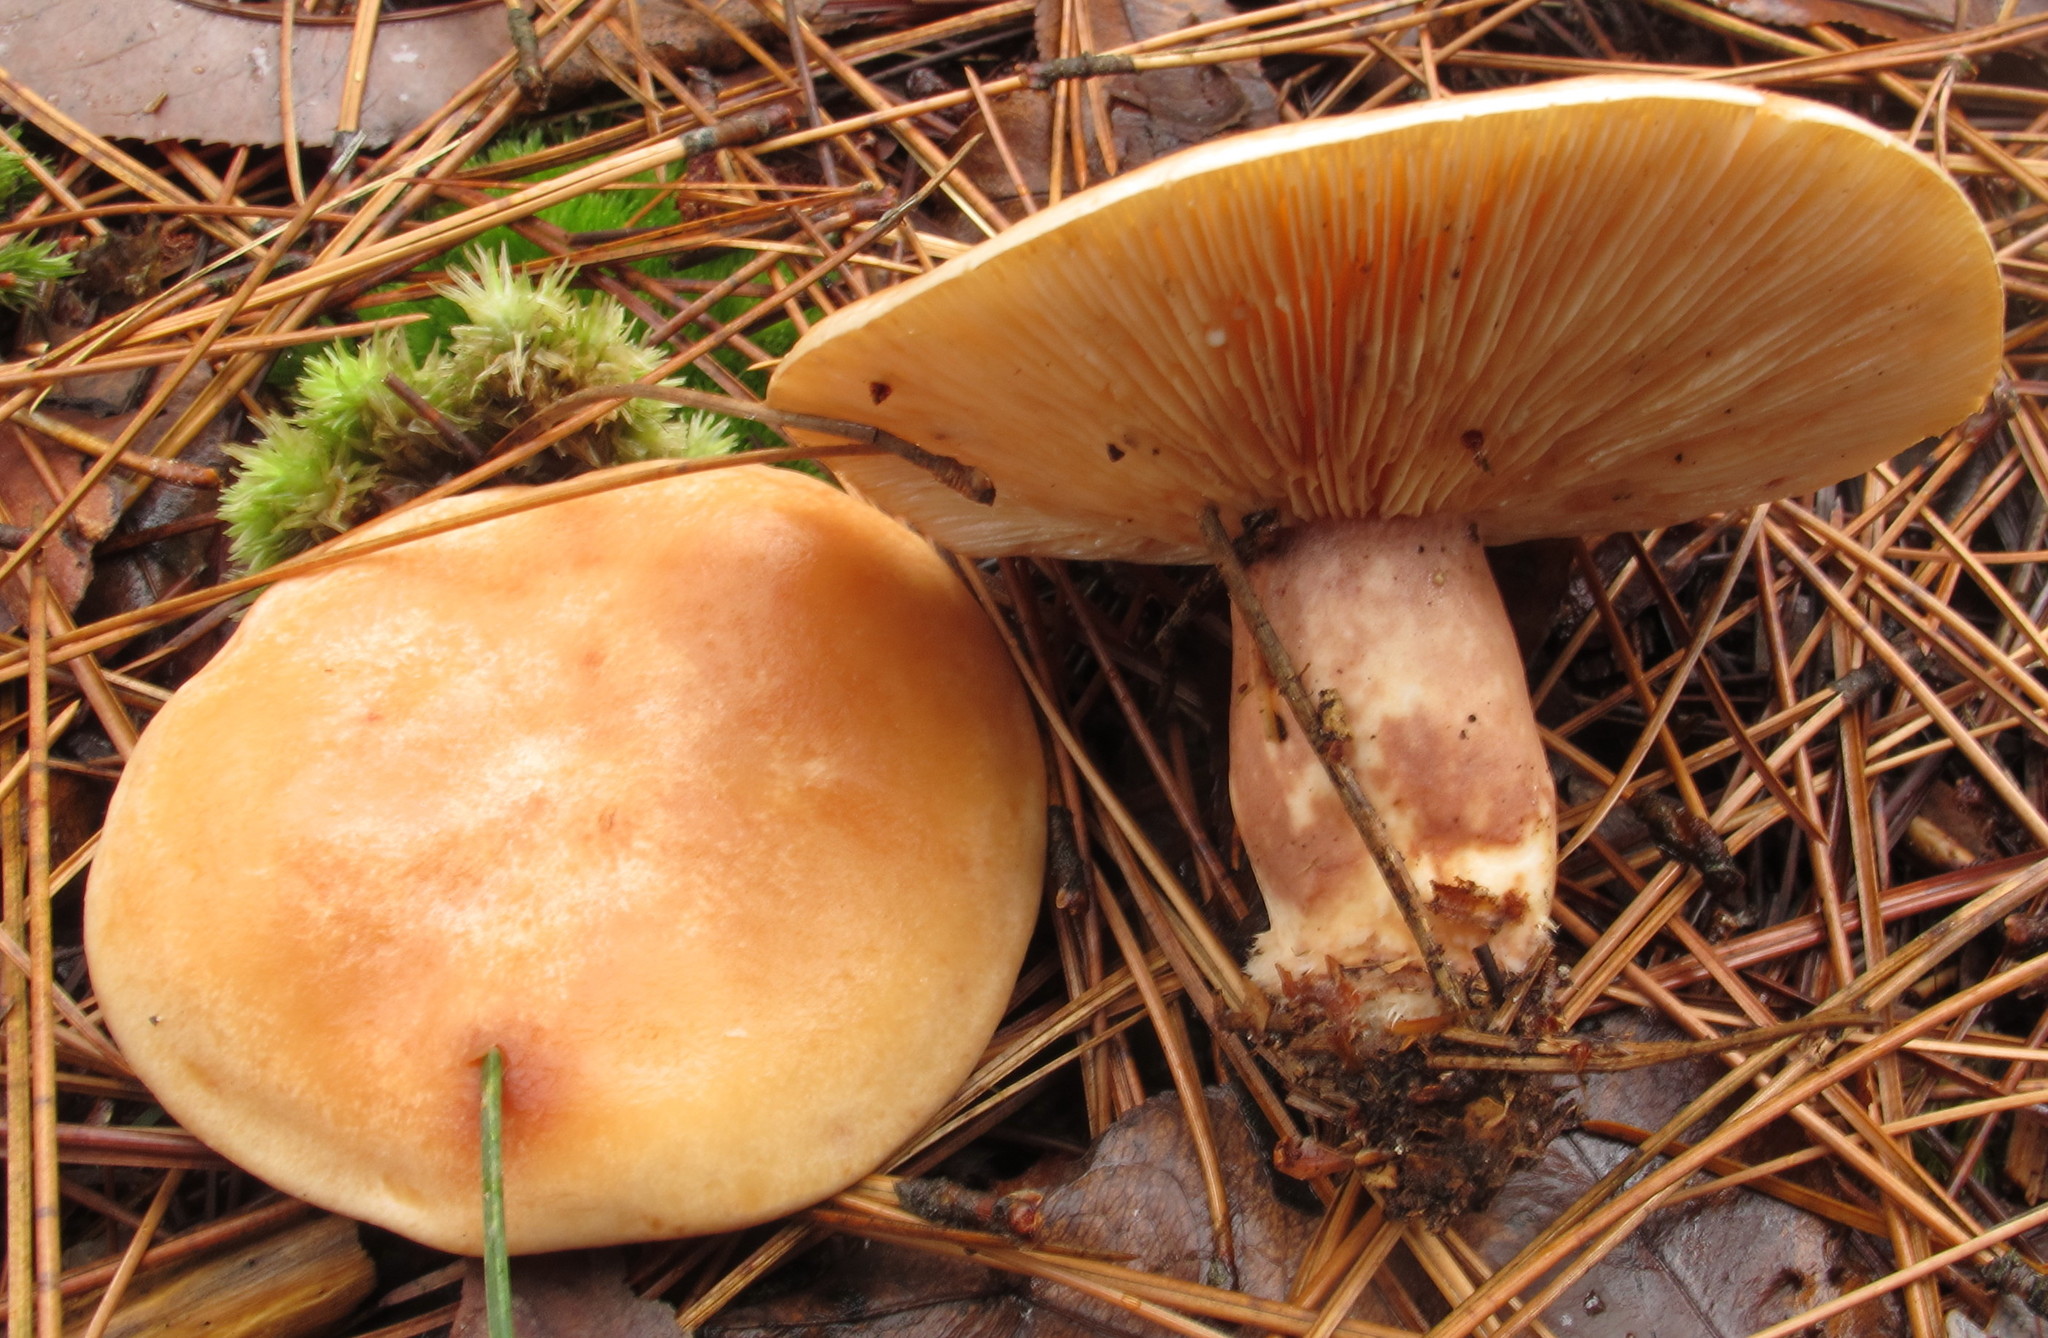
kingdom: Fungi
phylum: Basidiomycota
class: Agaricomycetes
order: Russulales
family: Russulaceae
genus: Lactarius
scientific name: Lactarius vinaceorufescens
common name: Yellow-latex milkcap
